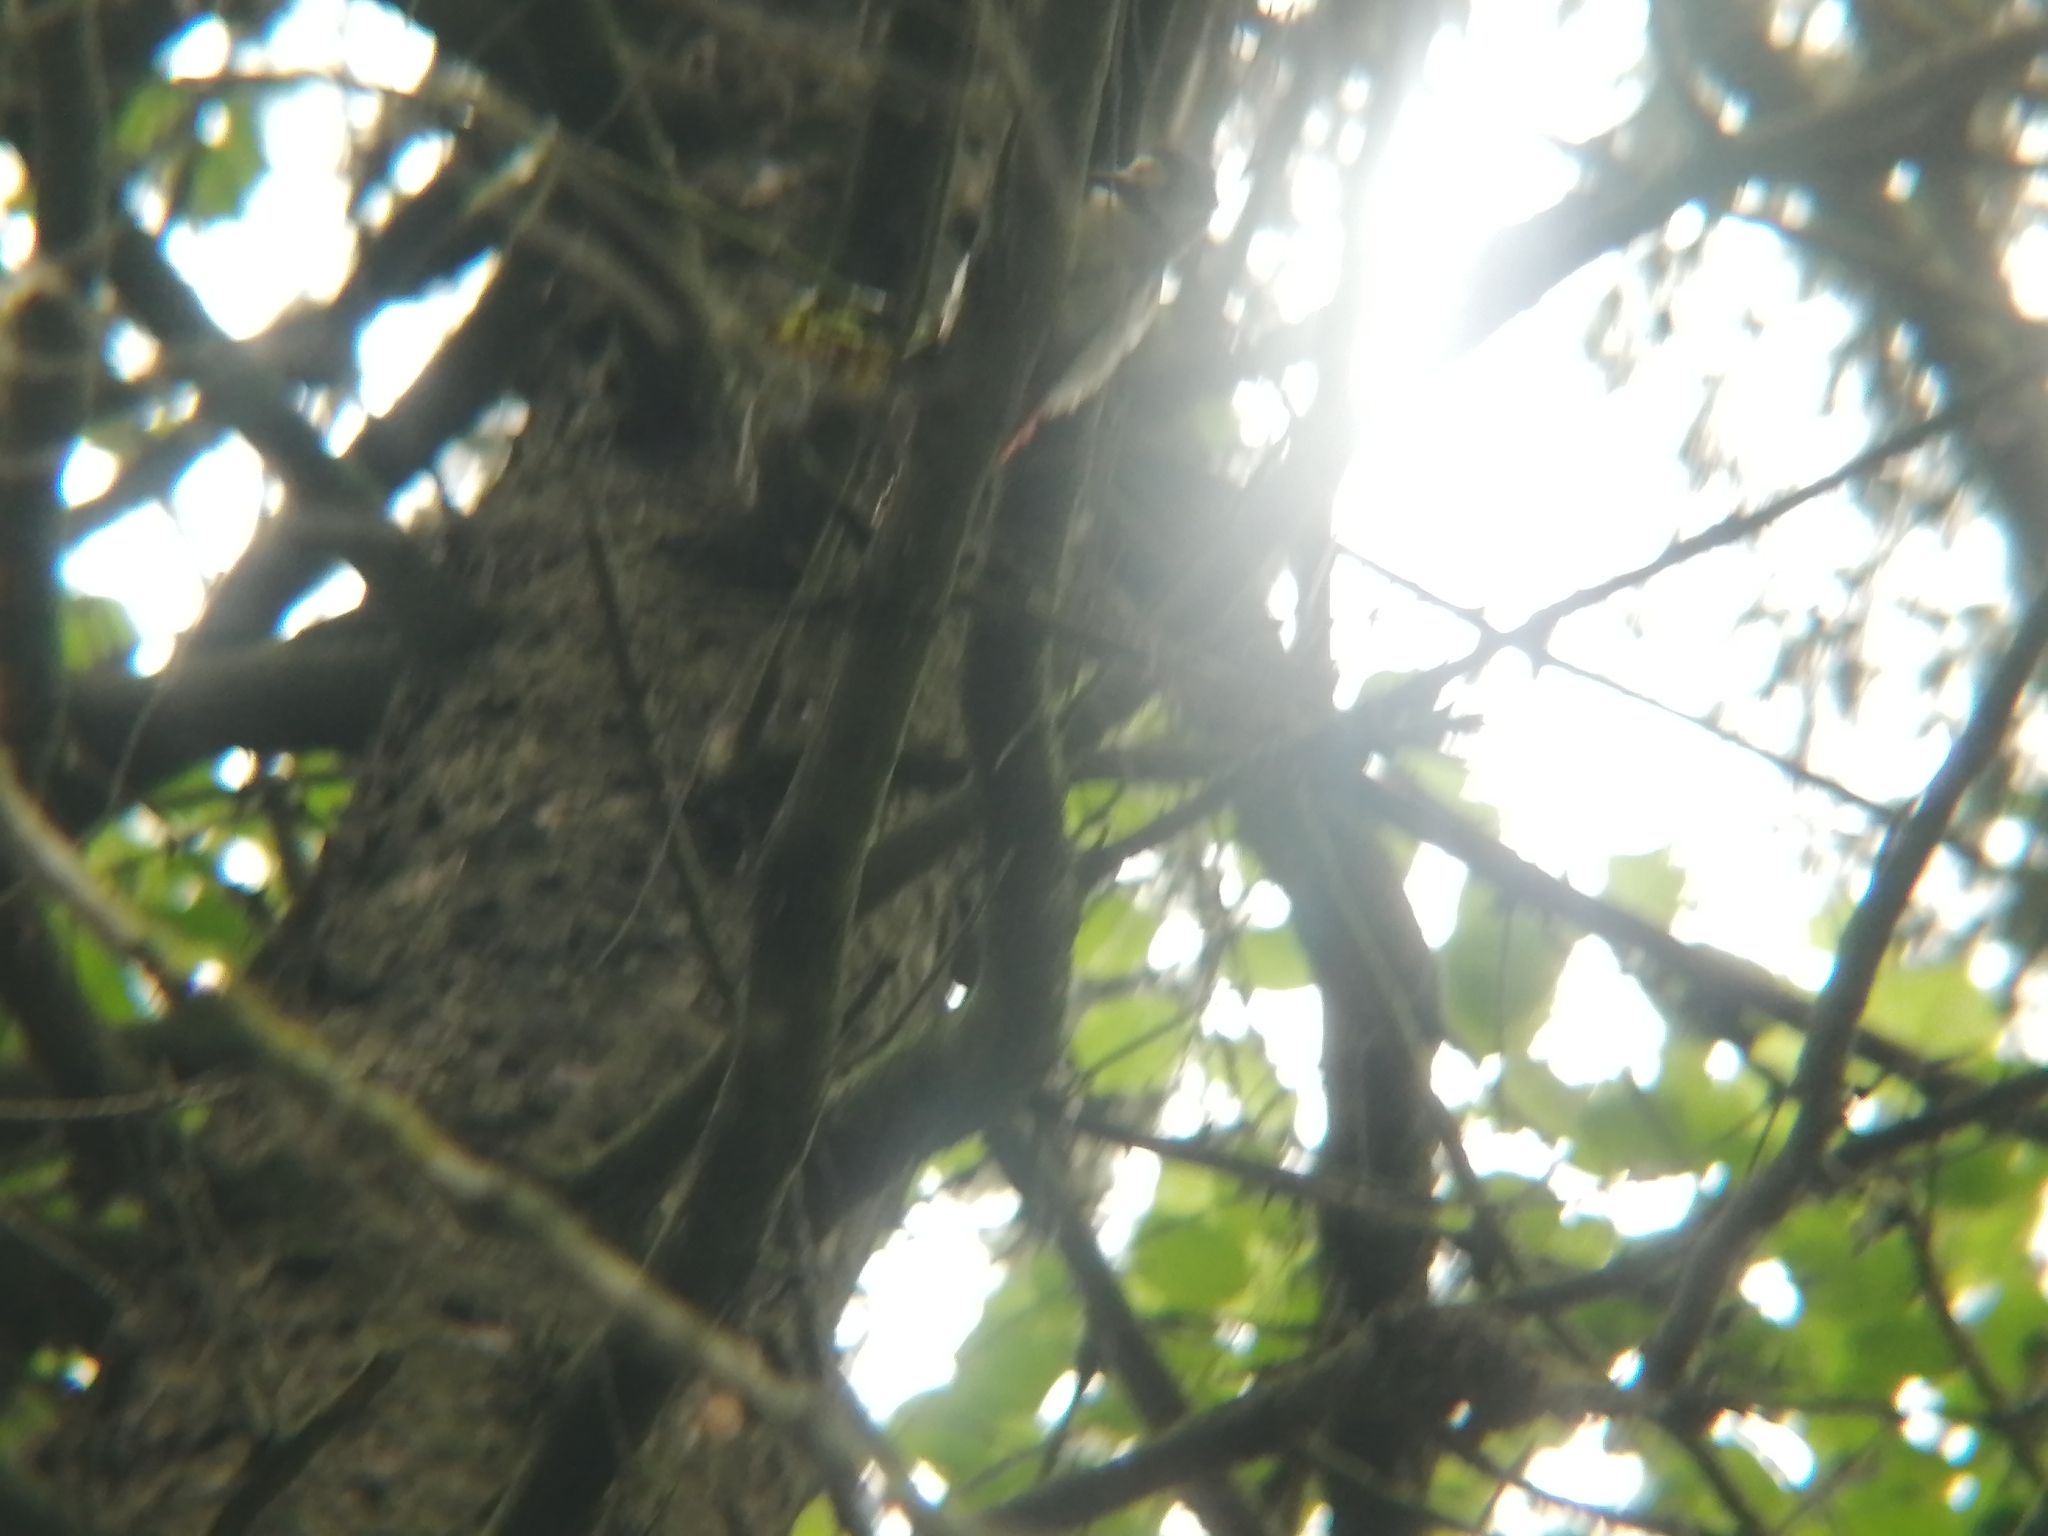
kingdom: Animalia
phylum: Chordata
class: Aves
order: Piciformes
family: Picidae
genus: Dendrocopos
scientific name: Dendrocopos major
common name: Great spotted woodpecker
